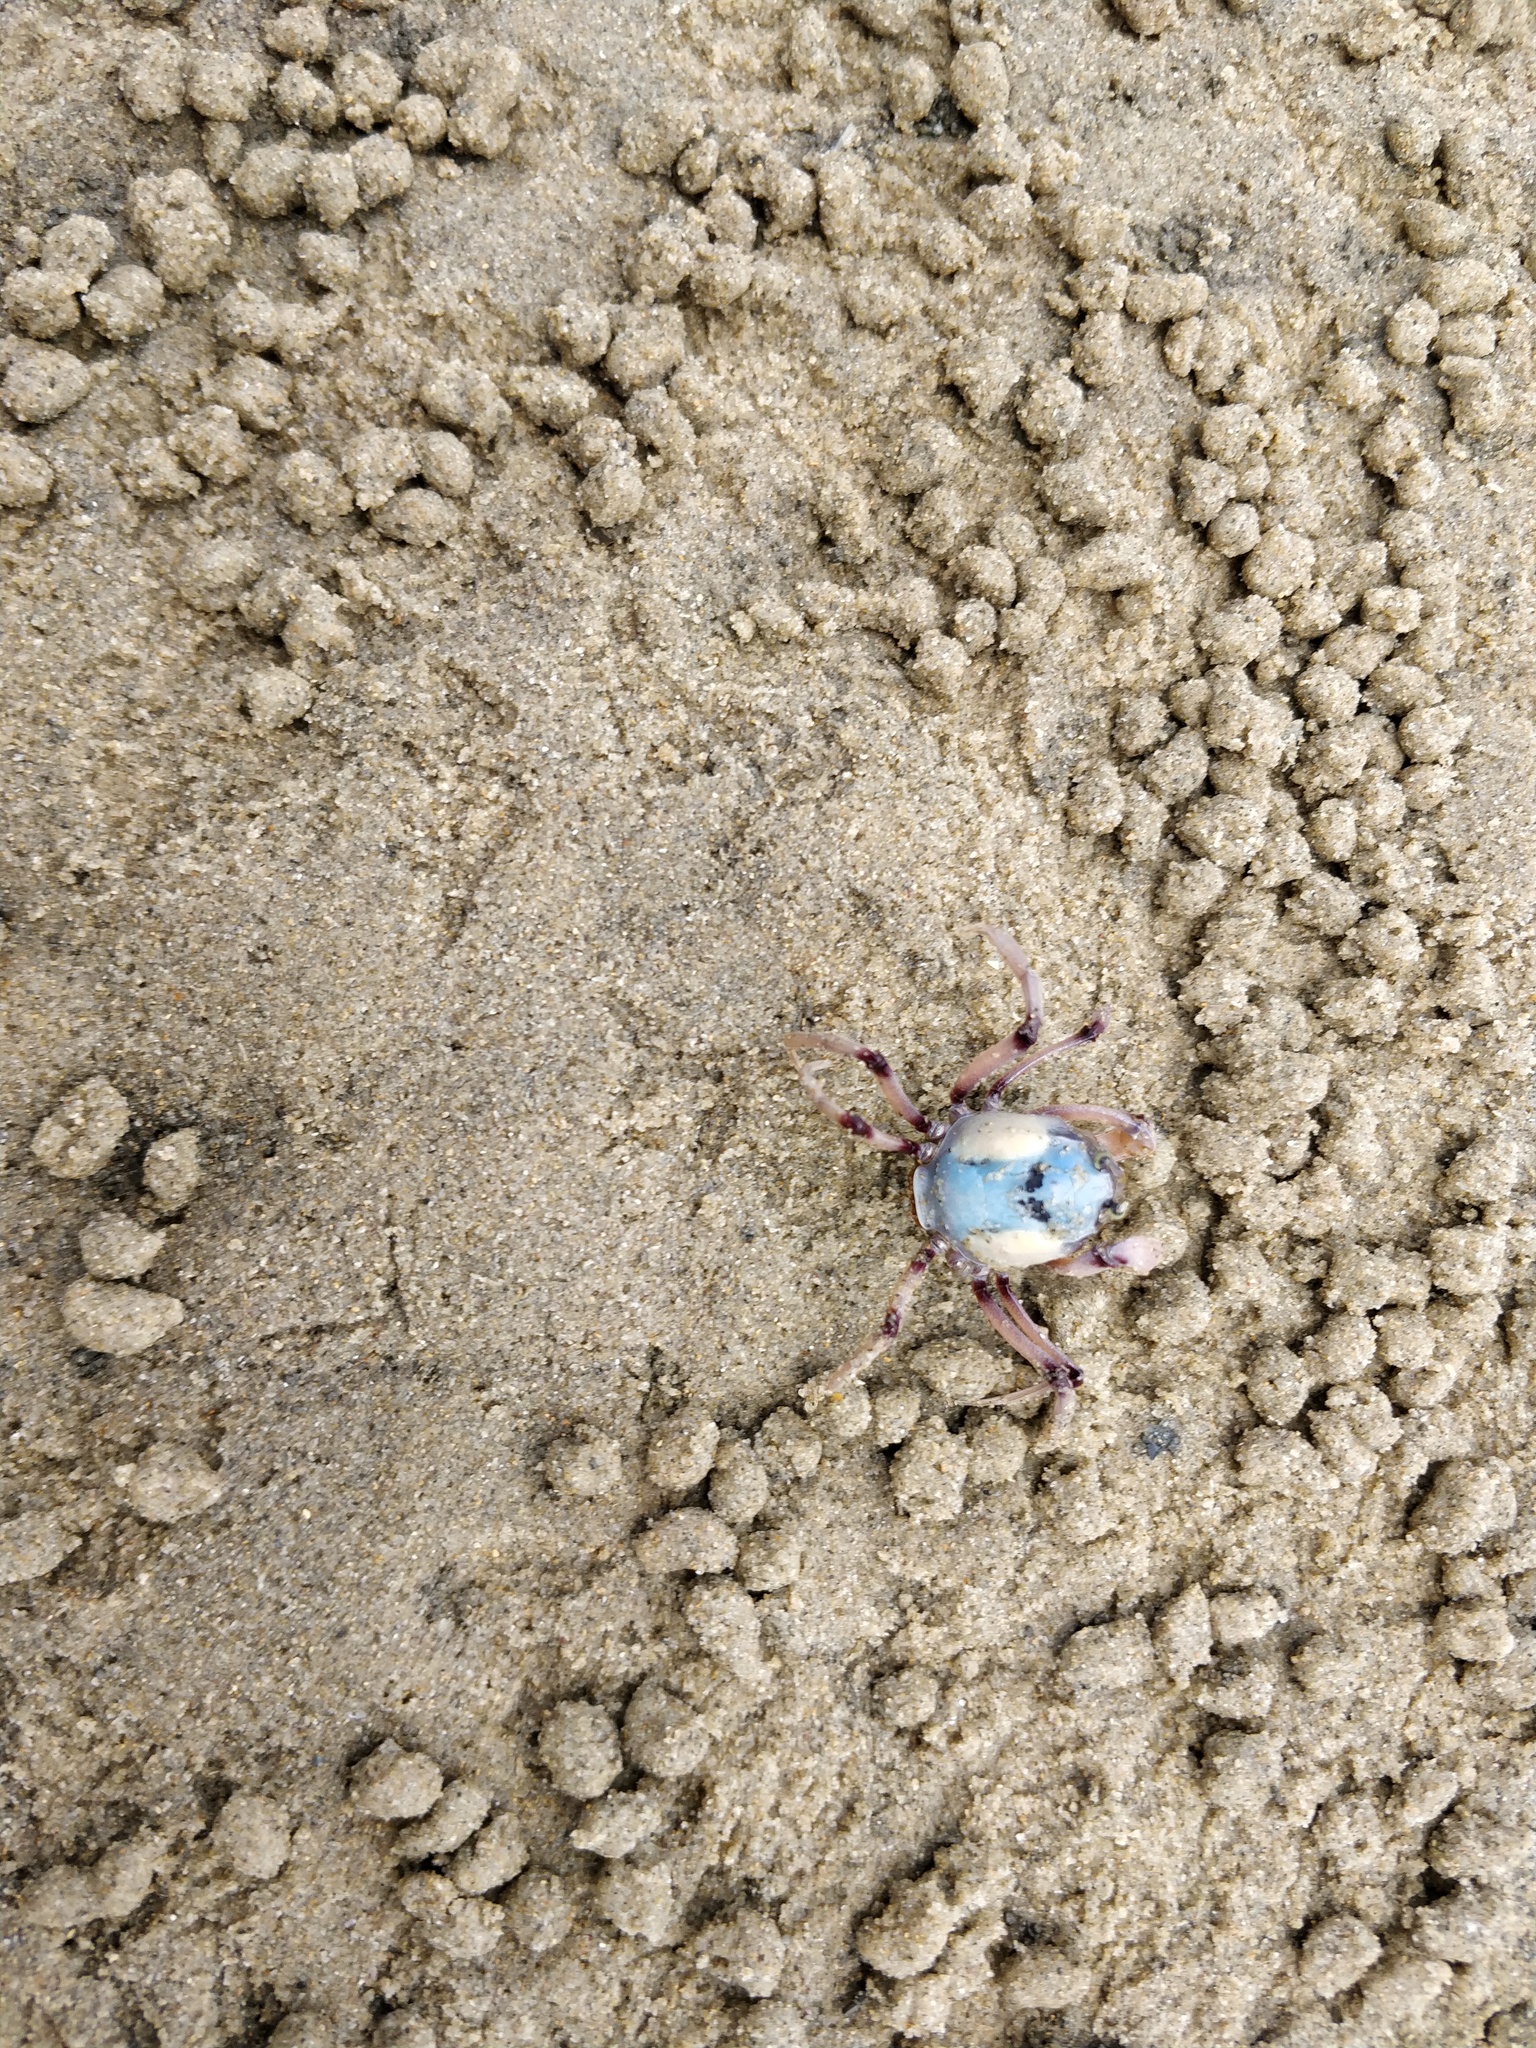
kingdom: Animalia
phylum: Arthropoda
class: Malacostraca
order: Decapoda
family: Mictyridae
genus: Mictyris
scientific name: Mictyris longicarpus
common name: Light-blue soldier crab
